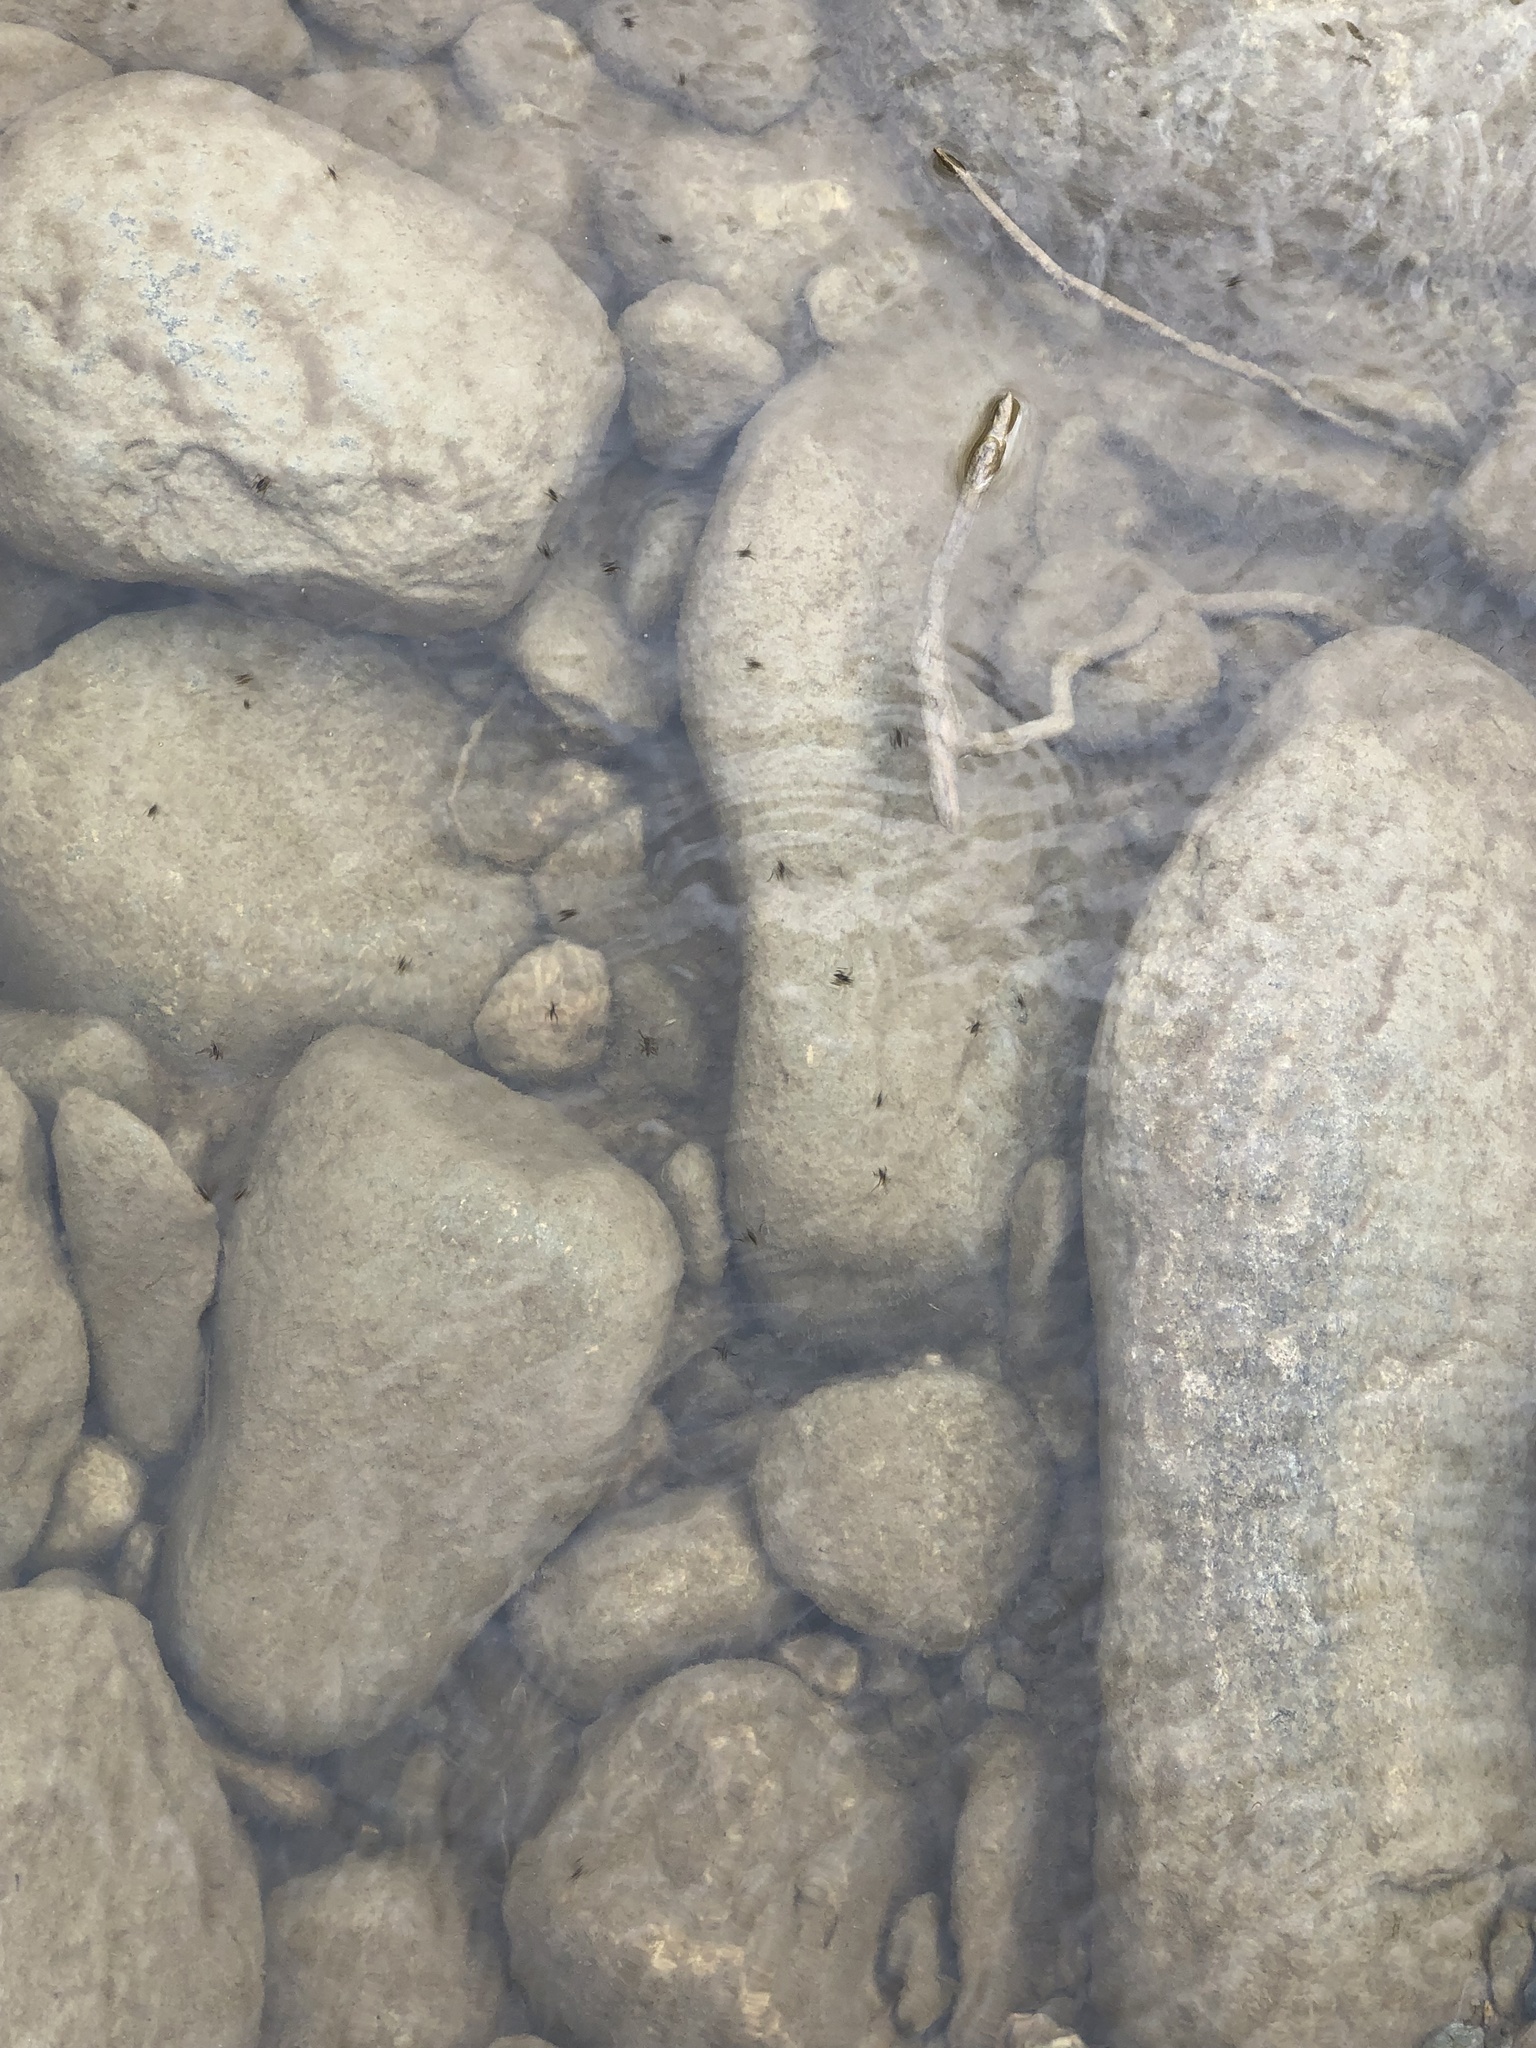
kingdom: Animalia
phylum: Arthropoda
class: Insecta
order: Hemiptera
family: Veliidae
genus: Rhagovelia
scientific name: Rhagovelia obesa
